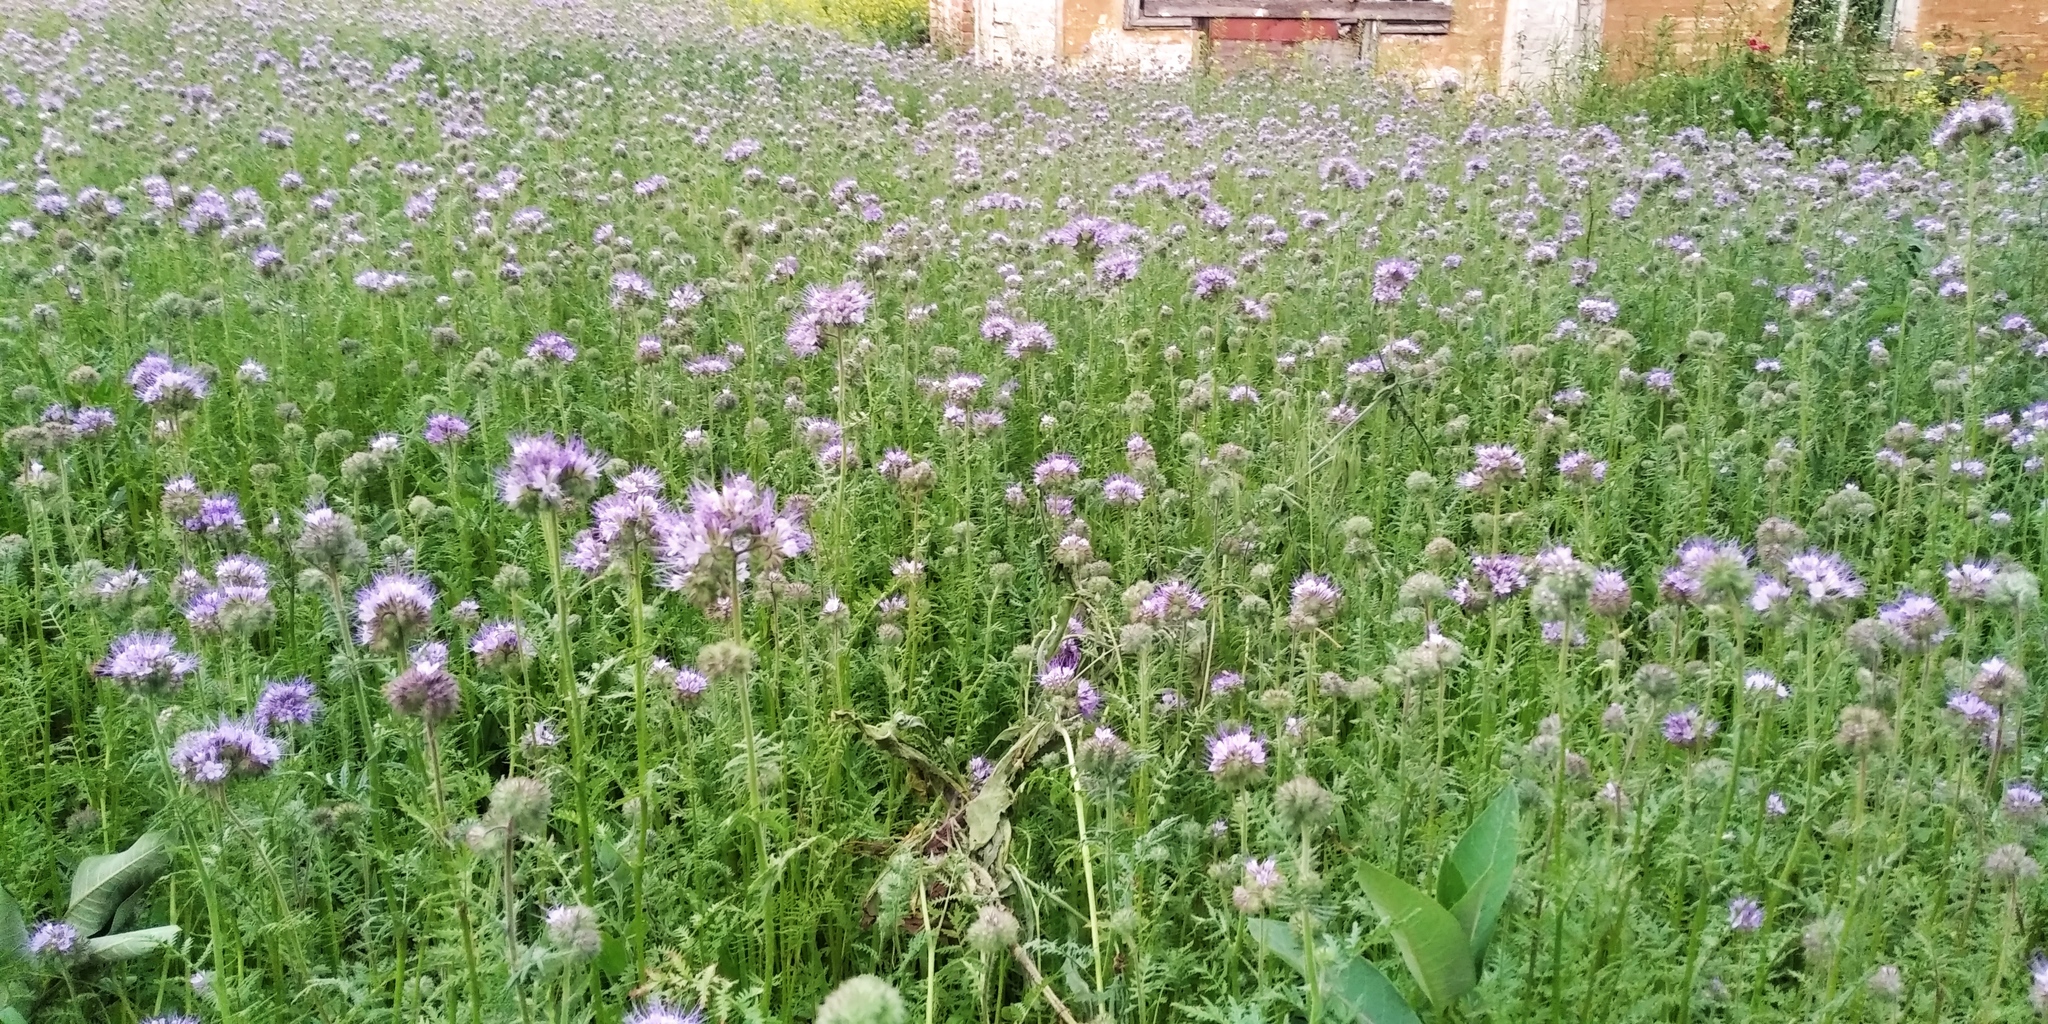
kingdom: Plantae
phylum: Tracheophyta
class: Magnoliopsida
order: Boraginales
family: Hydrophyllaceae
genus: Phacelia
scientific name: Phacelia tanacetifolia
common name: Phacelia
